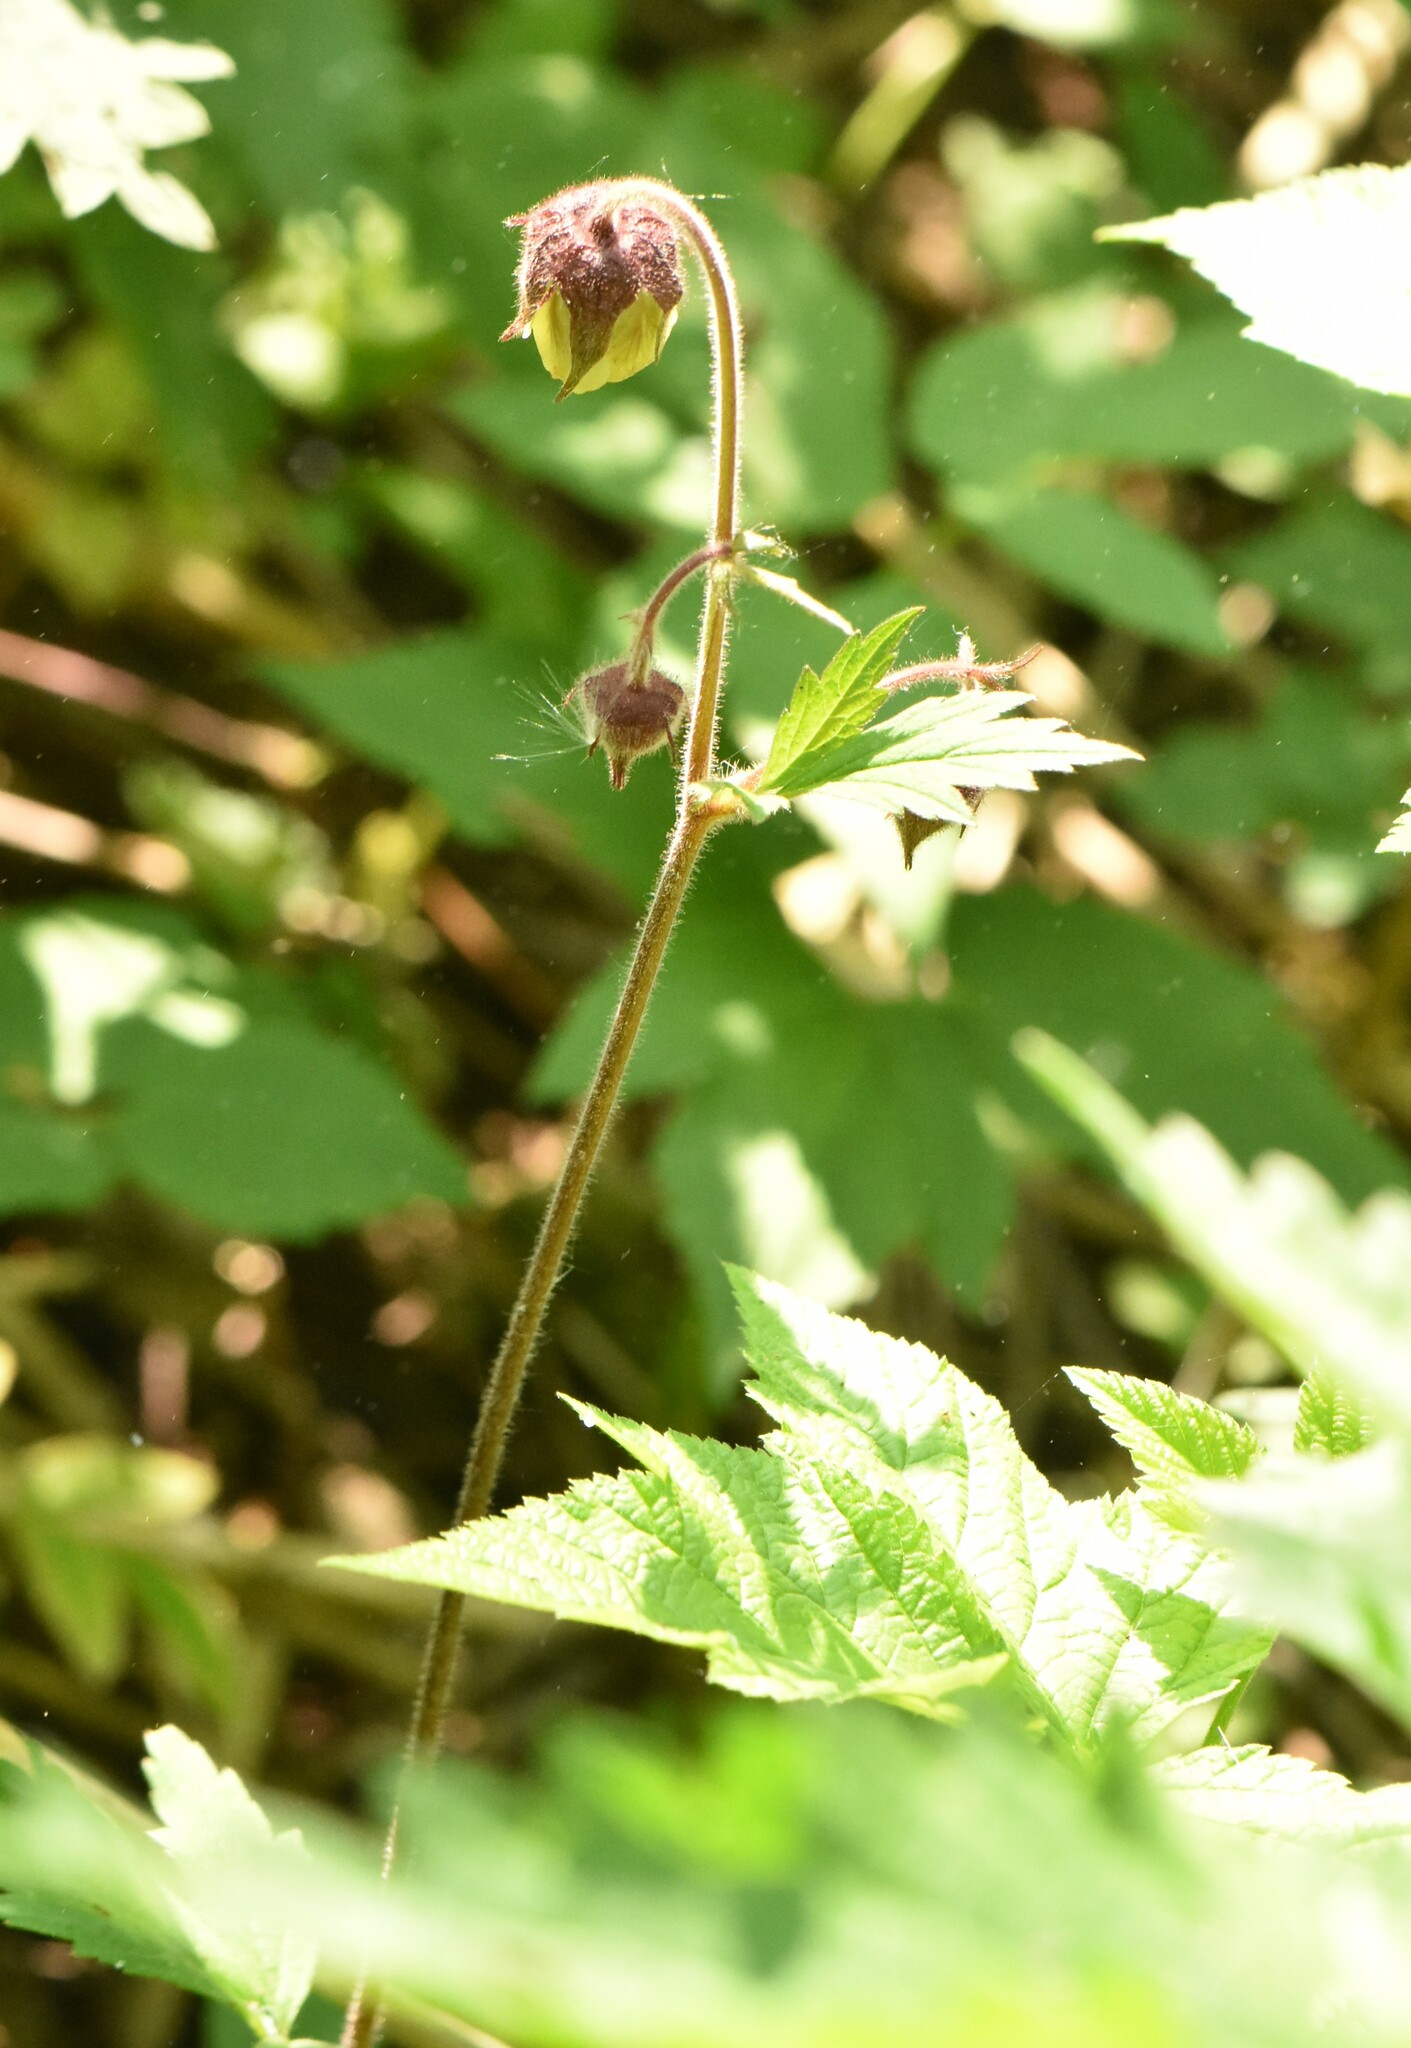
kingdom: Plantae
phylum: Tracheophyta
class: Magnoliopsida
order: Rosales
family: Rosaceae
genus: Geum
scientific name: Geum rivale
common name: Water avens
